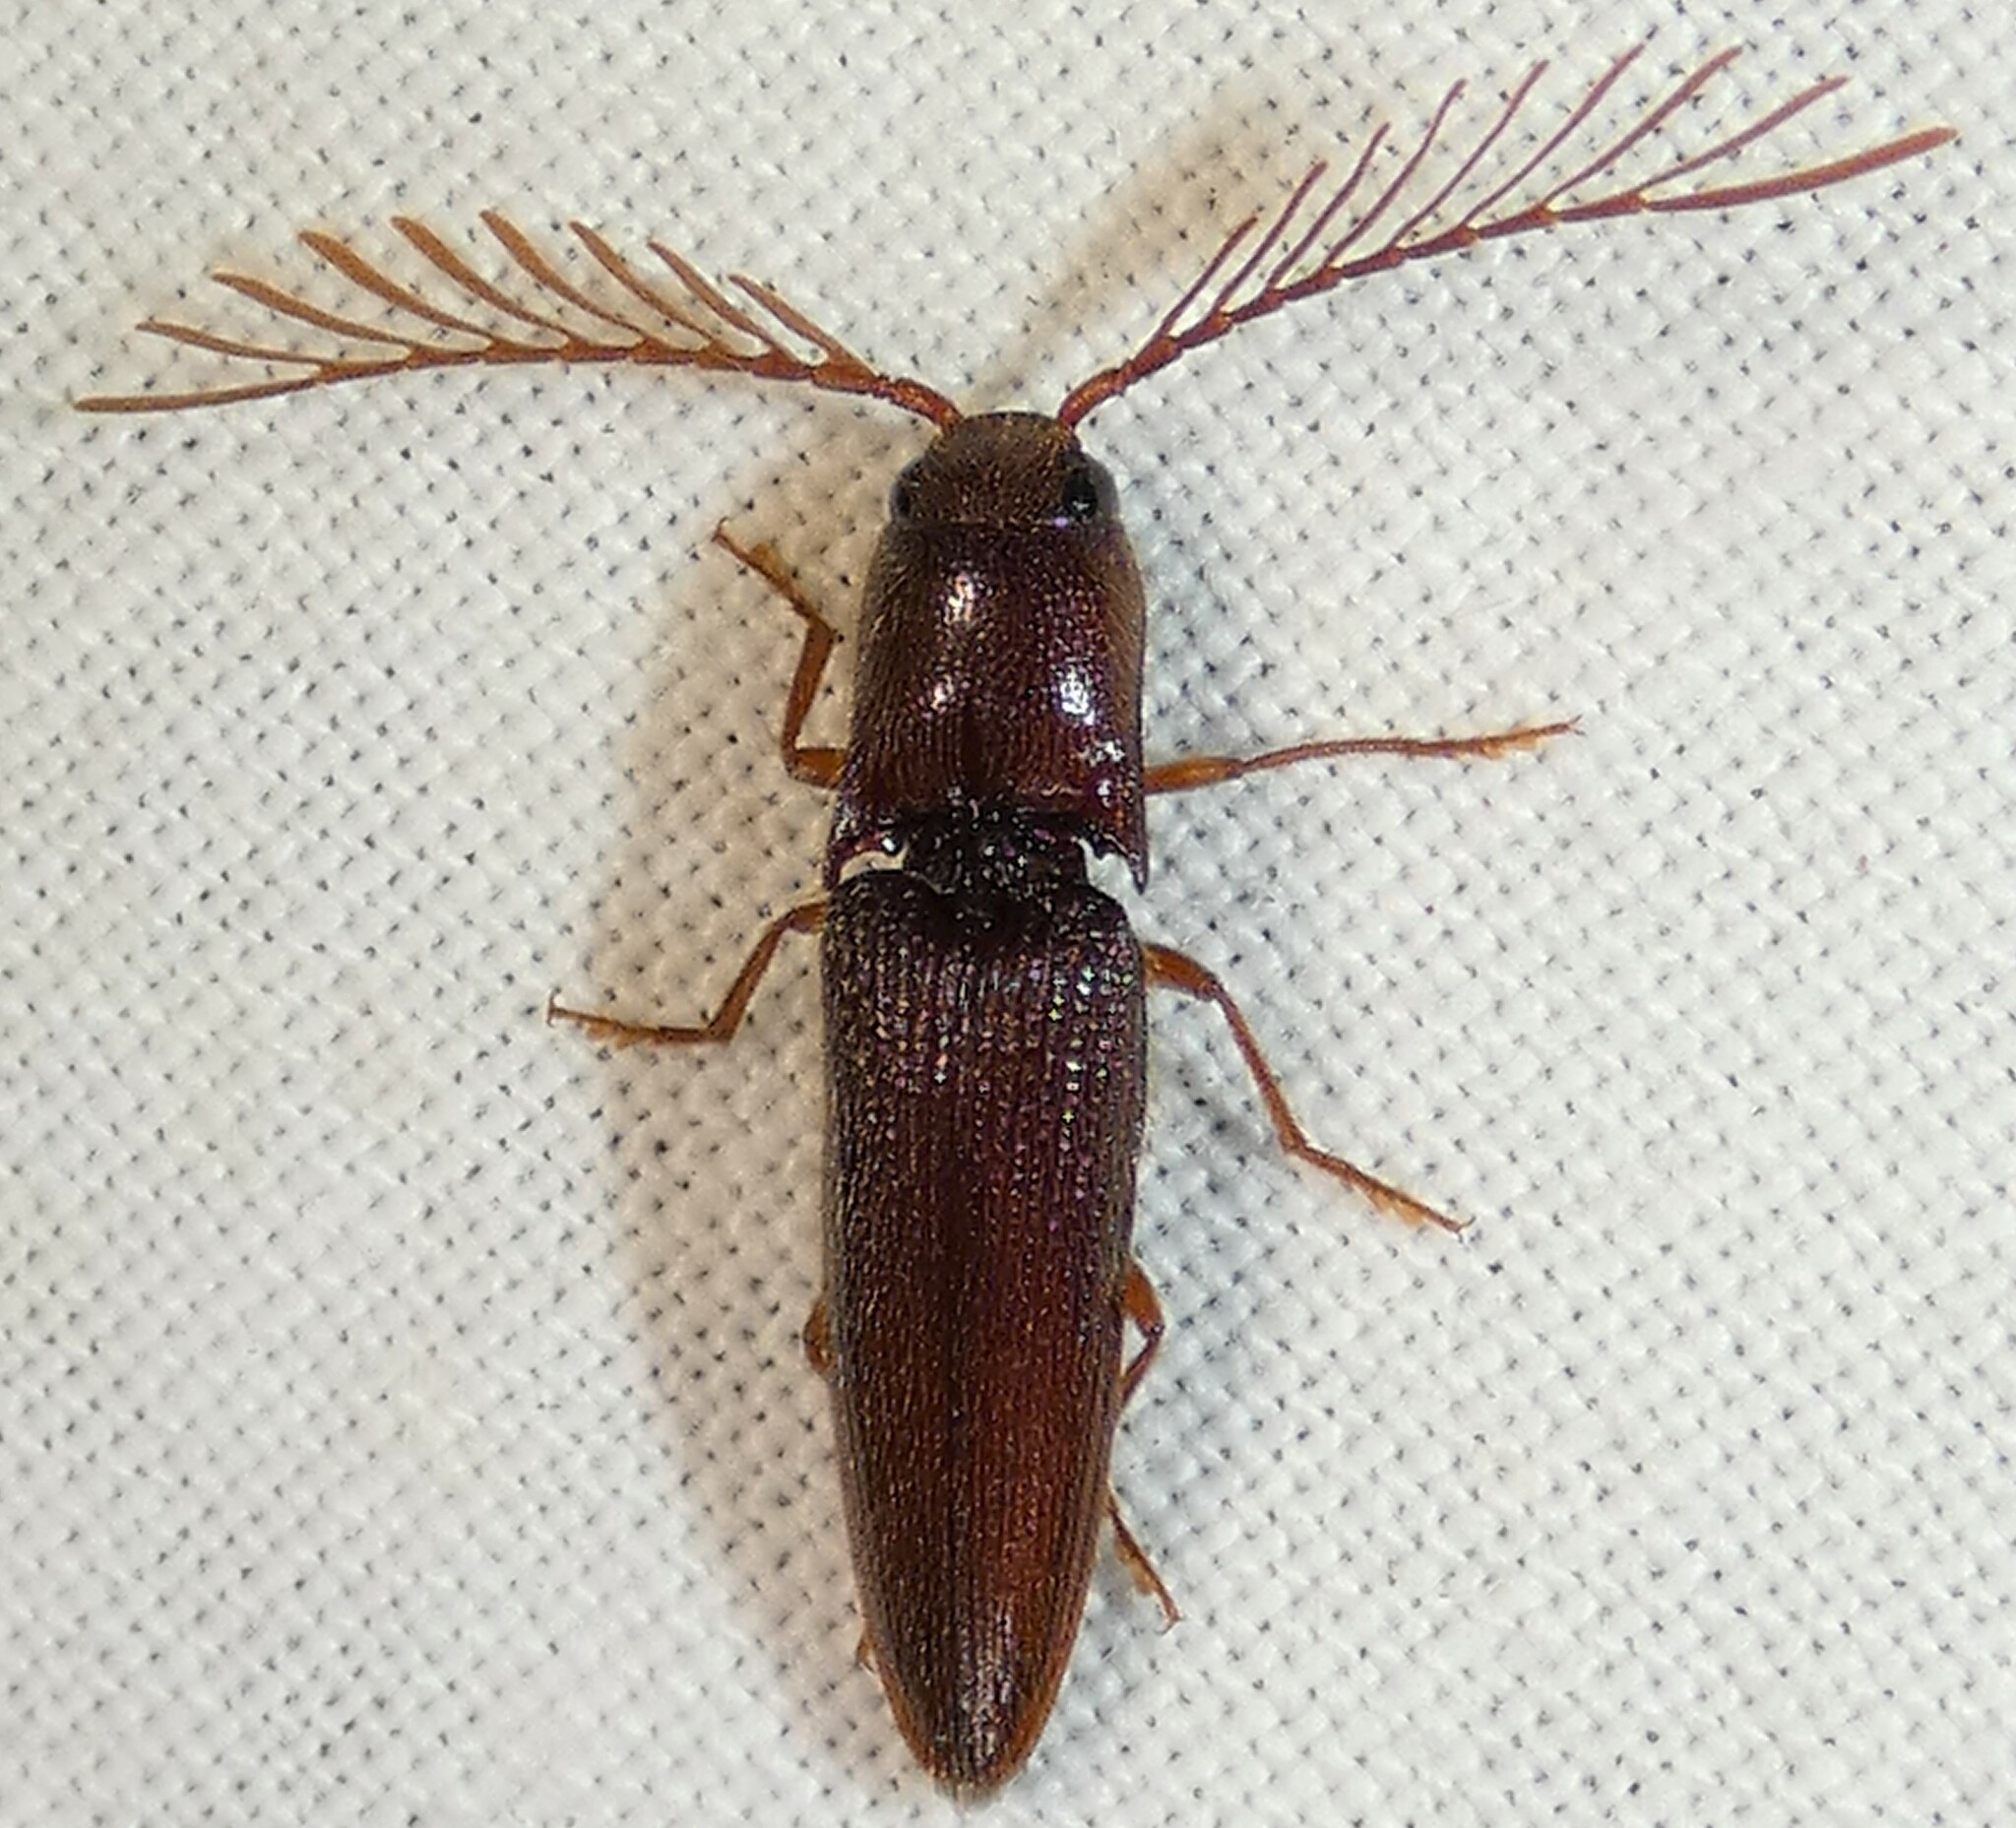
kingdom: Animalia
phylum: Arthropoda
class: Insecta
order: Coleoptera
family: Elateridae
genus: Dicrepidius
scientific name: Dicrepidius palmatus
